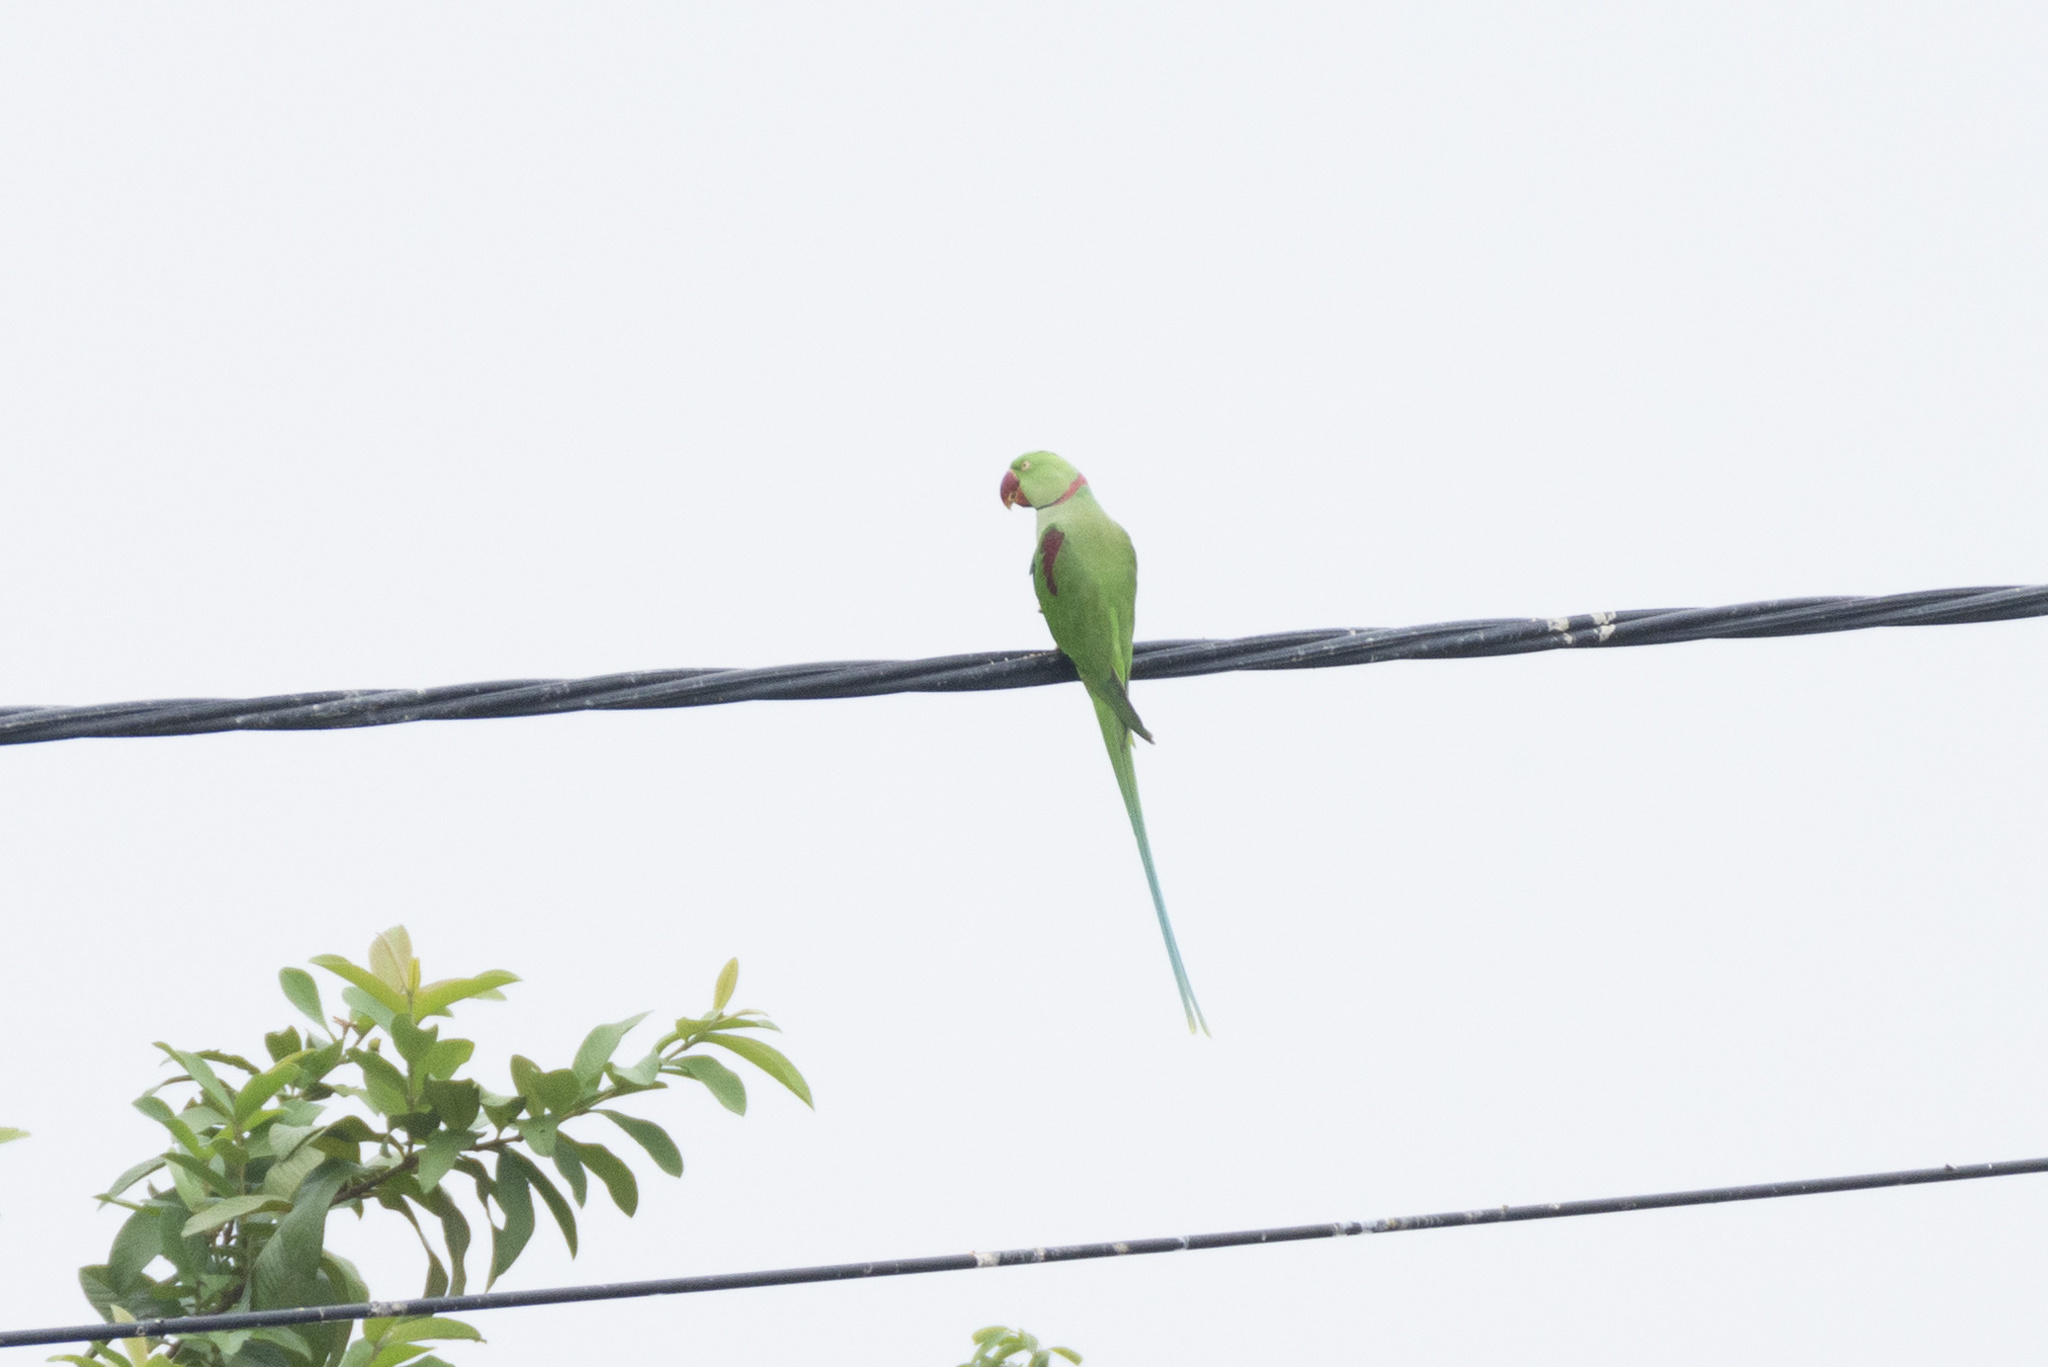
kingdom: Animalia
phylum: Chordata
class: Aves
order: Psittaciformes
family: Psittacidae
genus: Psittacula
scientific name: Psittacula eupatria
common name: Alexandrine parakeet
